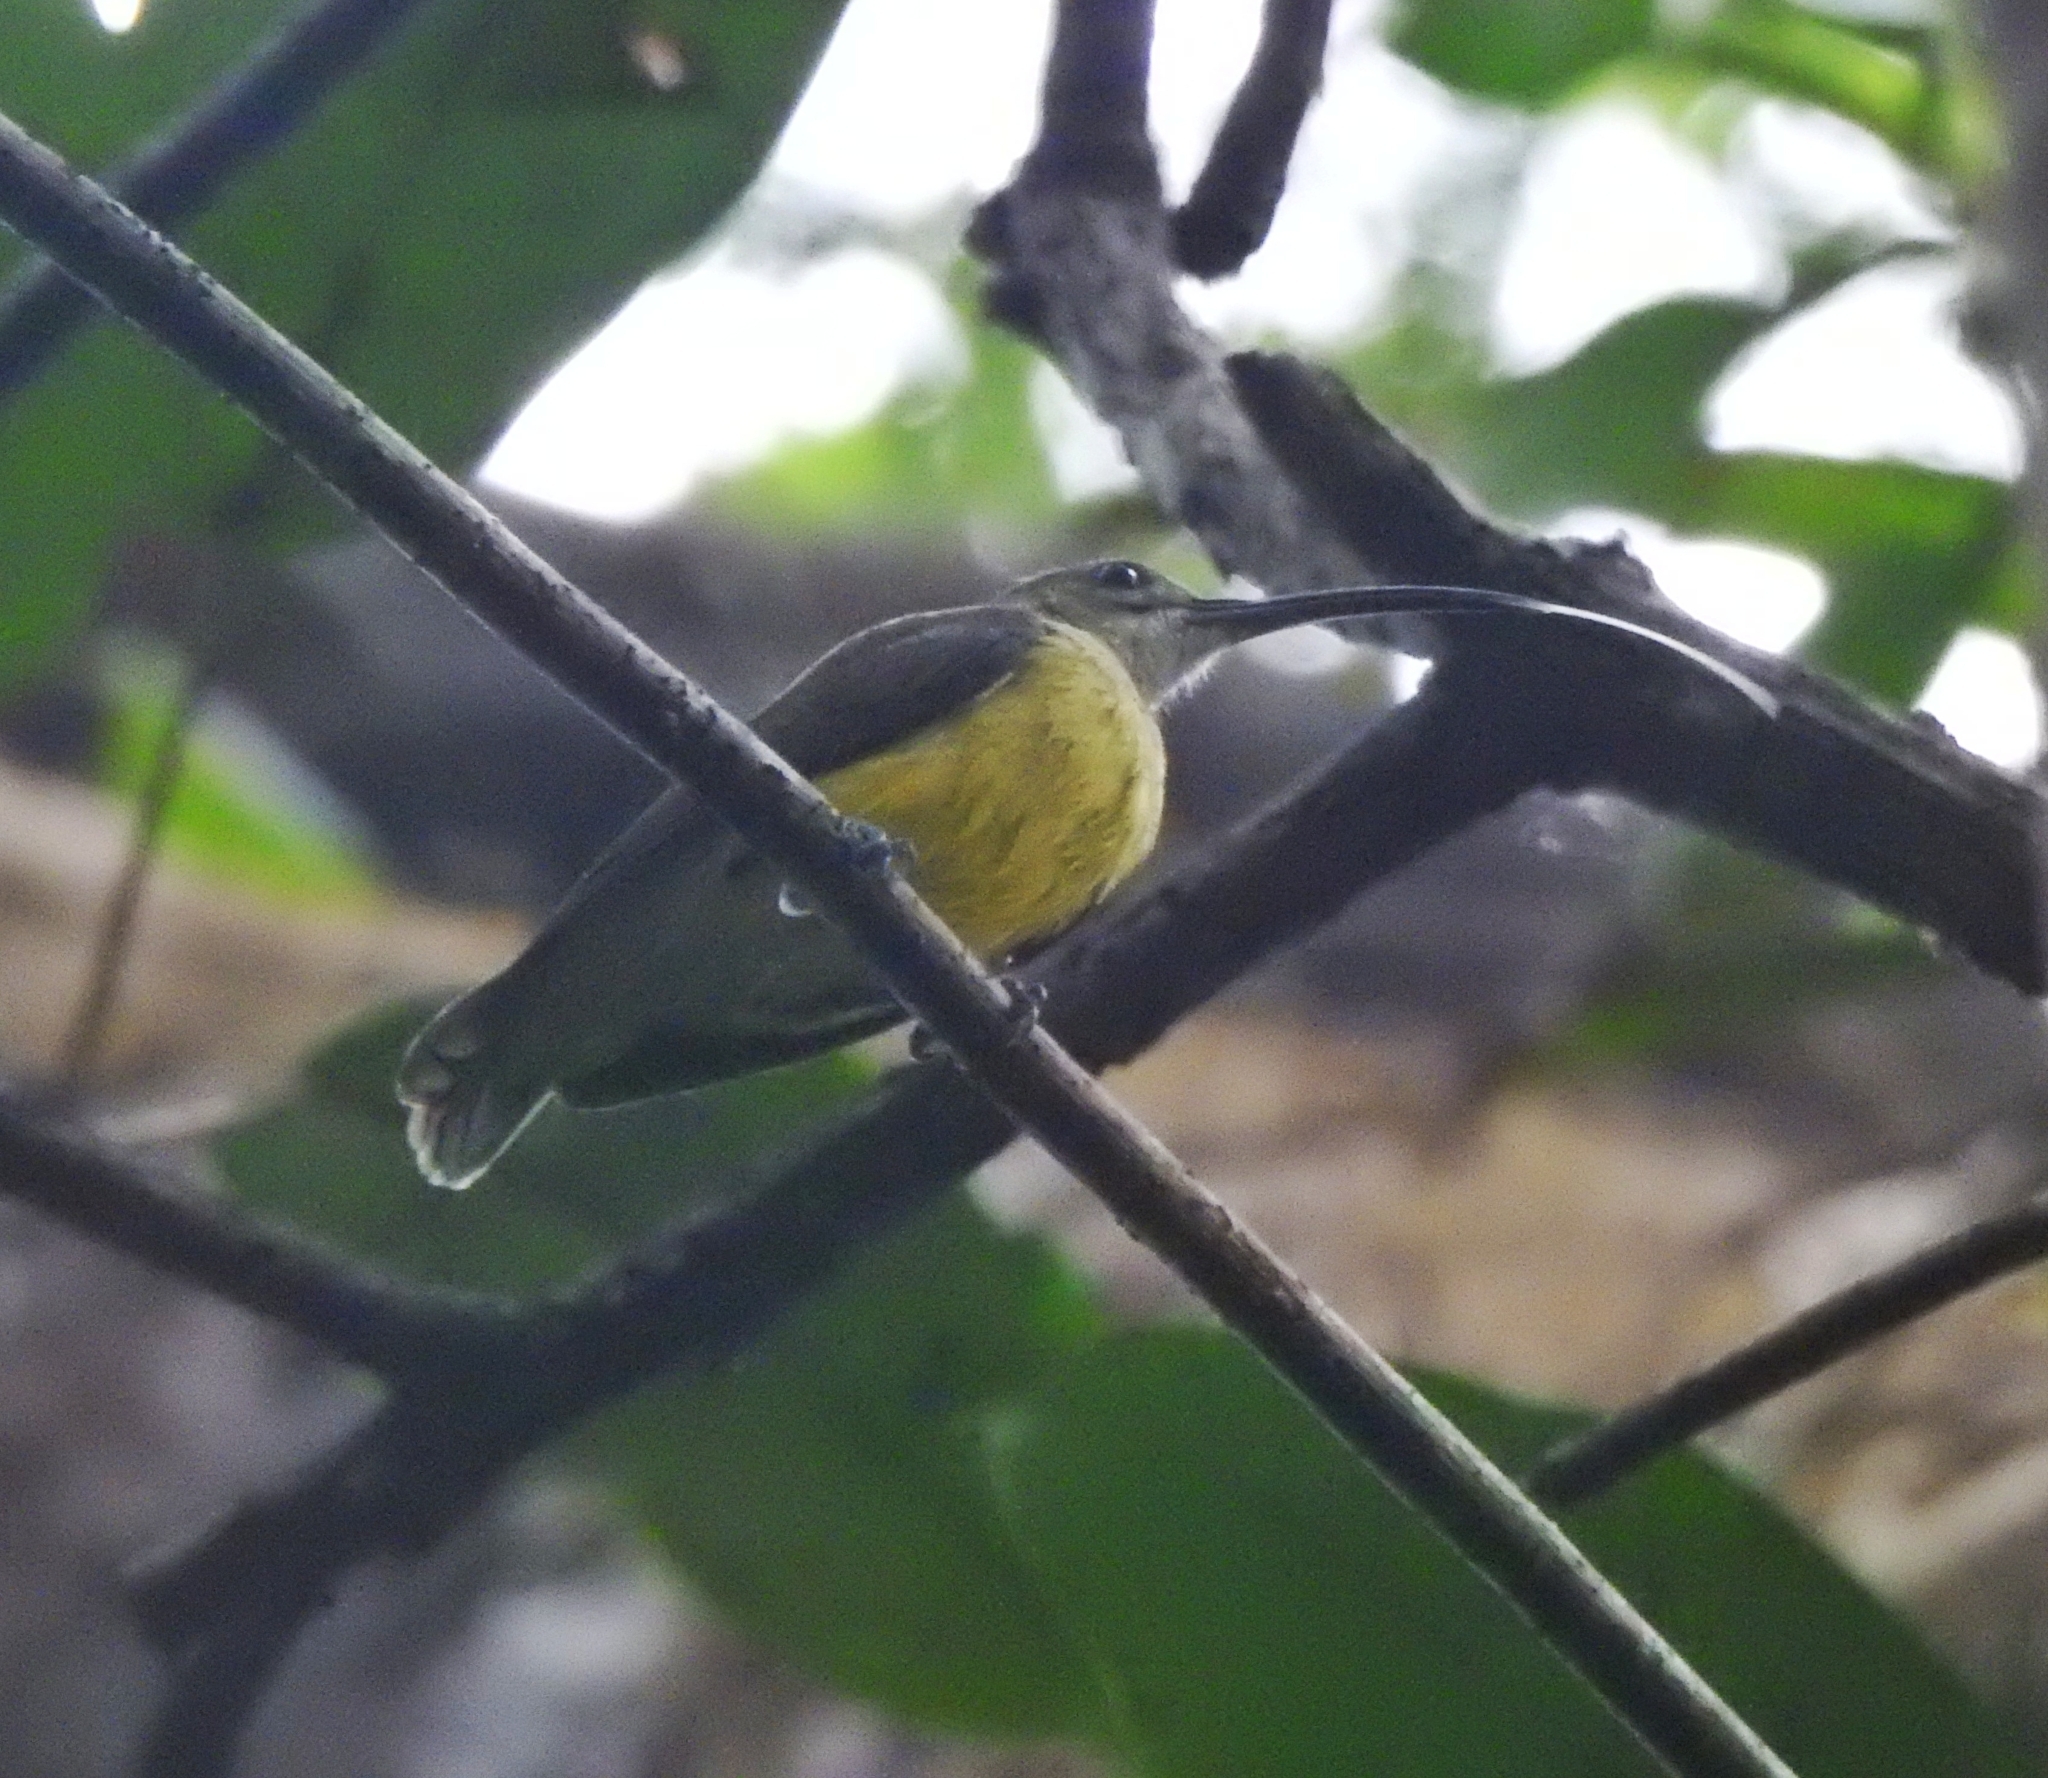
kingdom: Animalia
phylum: Chordata
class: Aves
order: Passeriformes
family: Nectariniidae
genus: Arachnothera
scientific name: Arachnothera longirostra
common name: Little spiderhunter
